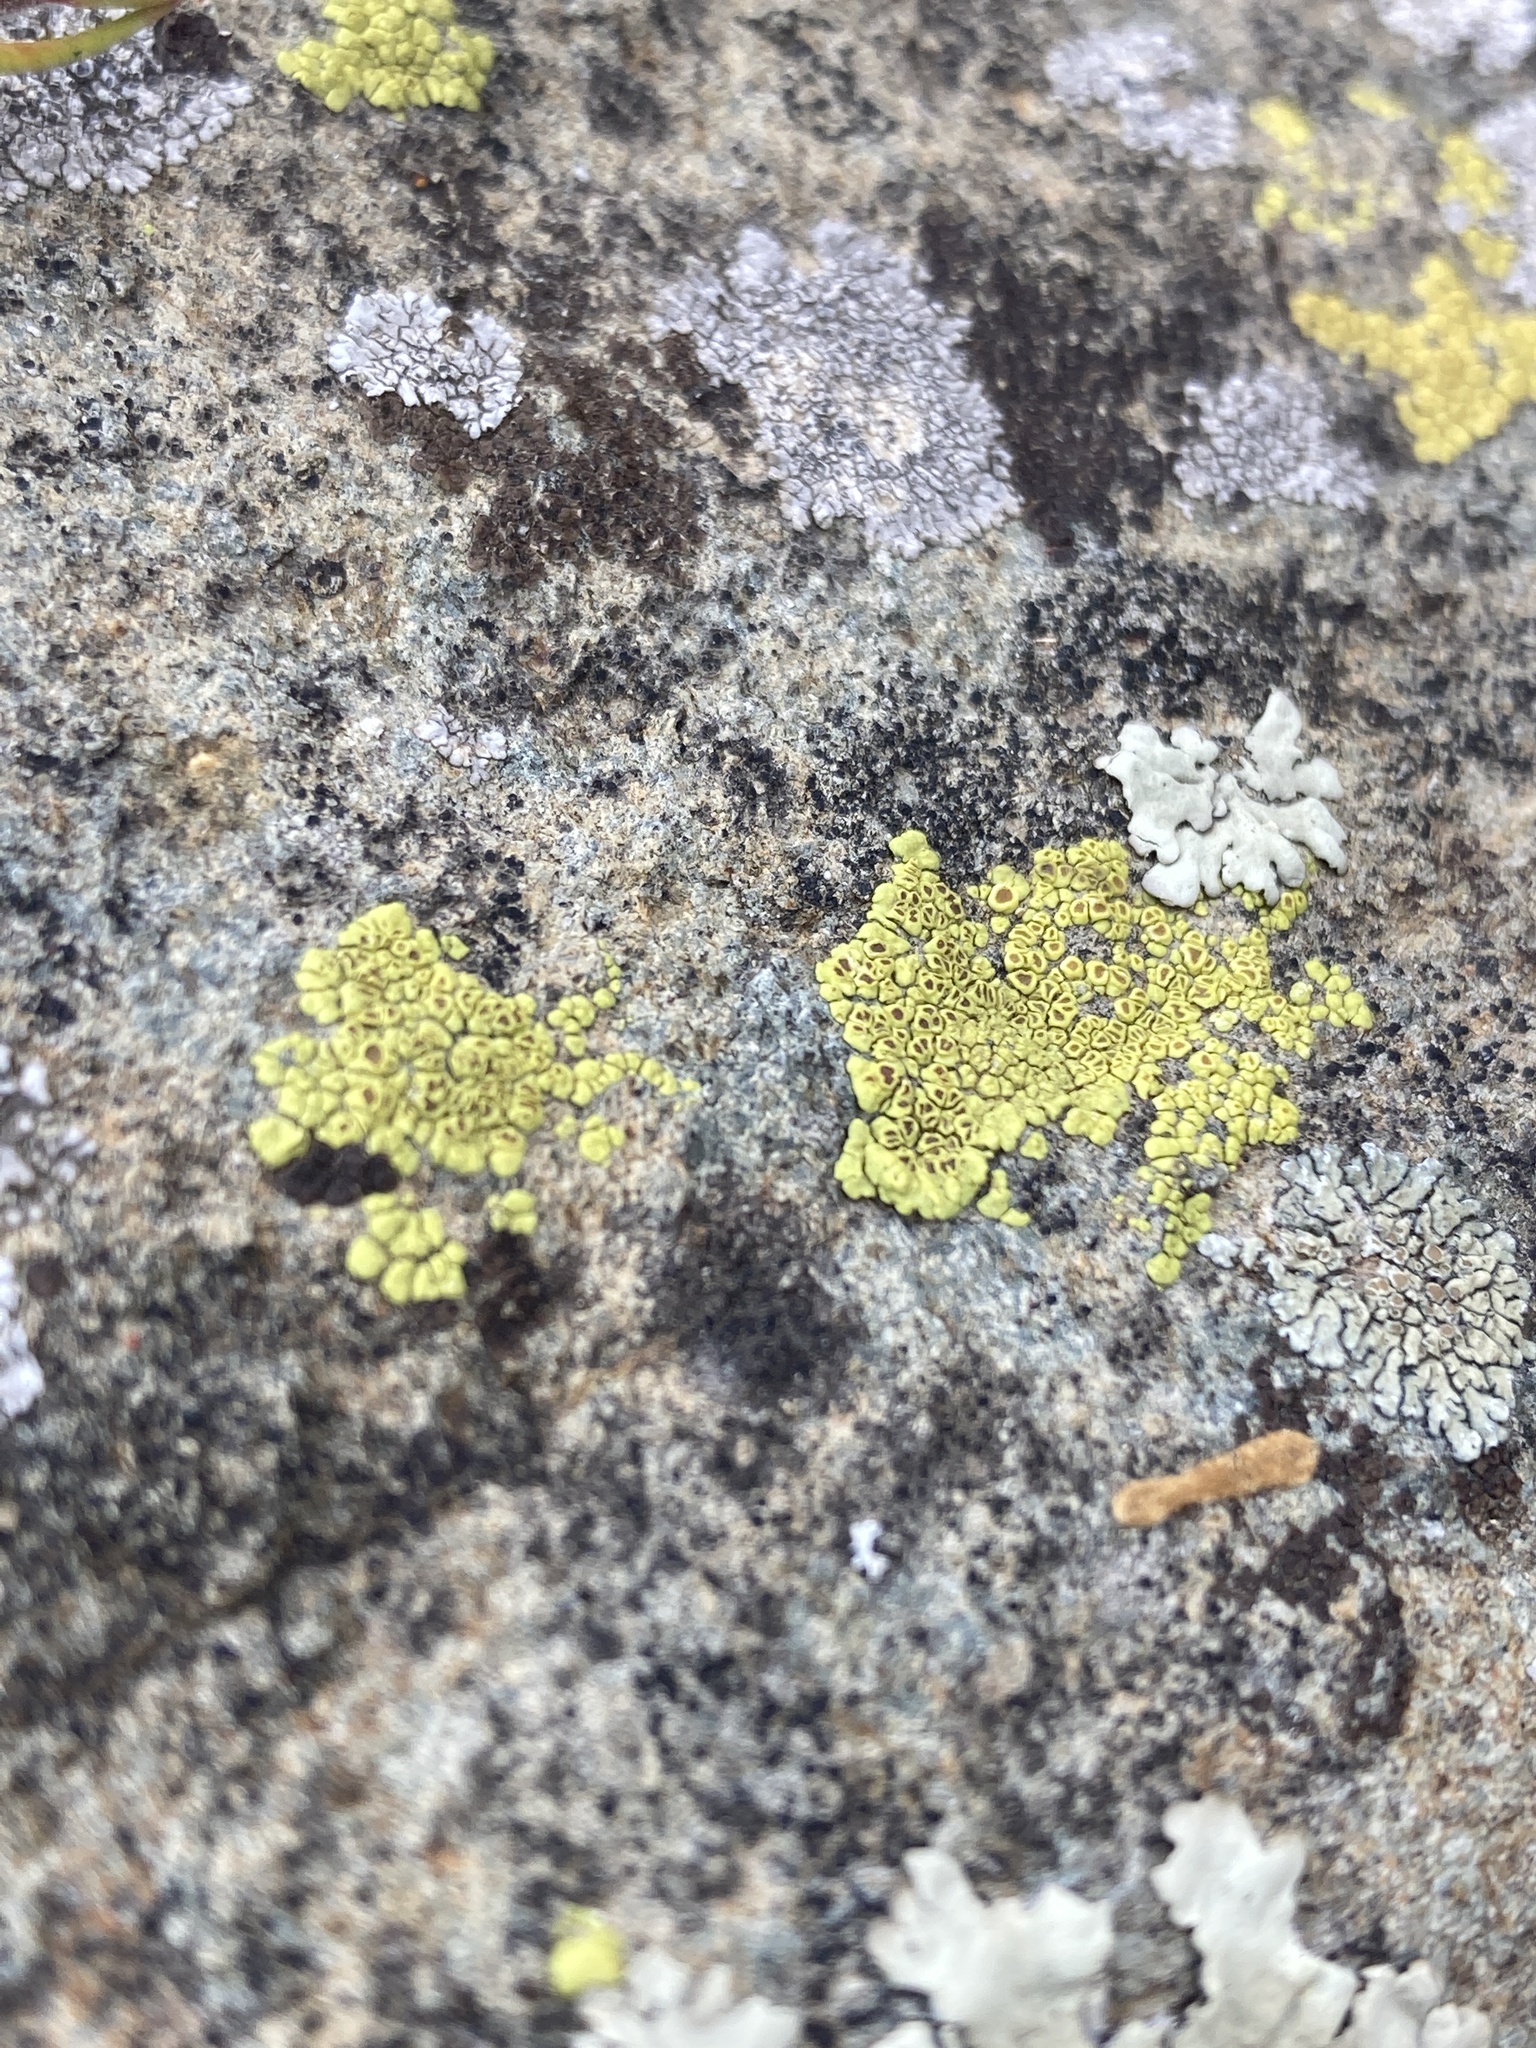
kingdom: Fungi
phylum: Ascomycota
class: Lecanoromycetes
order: Acarosporales
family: Acarosporaceae
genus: Acarospora
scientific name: Acarospora socialis
